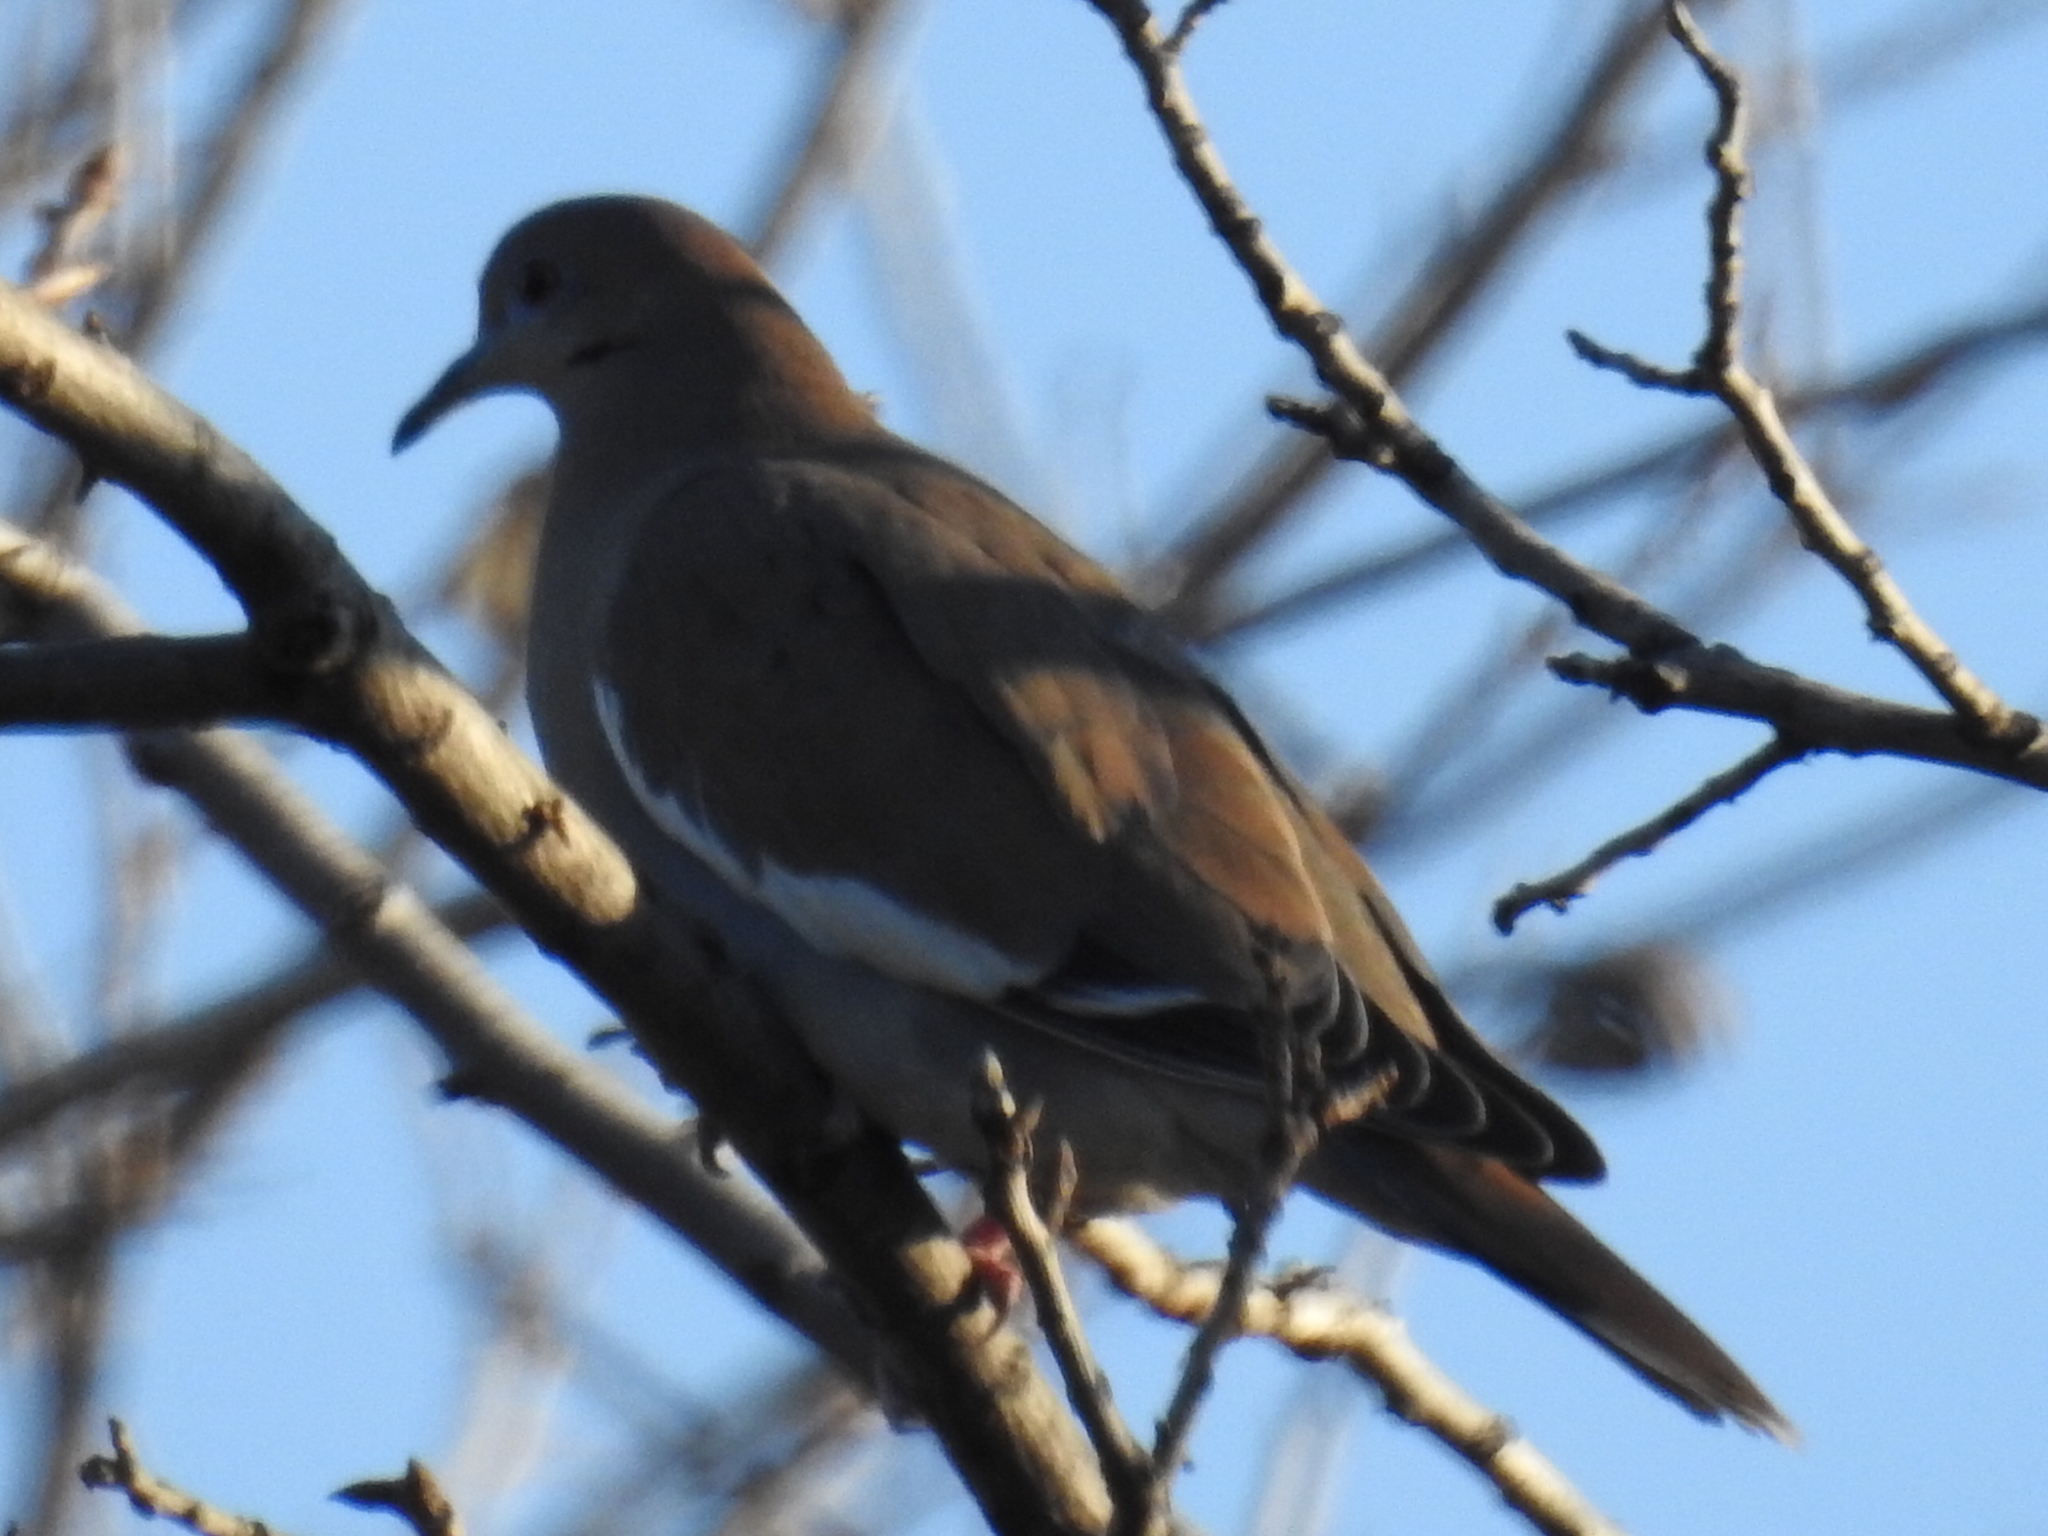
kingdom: Animalia
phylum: Chordata
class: Aves
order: Columbiformes
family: Columbidae
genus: Zenaida
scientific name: Zenaida asiatica
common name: White-winged dove
